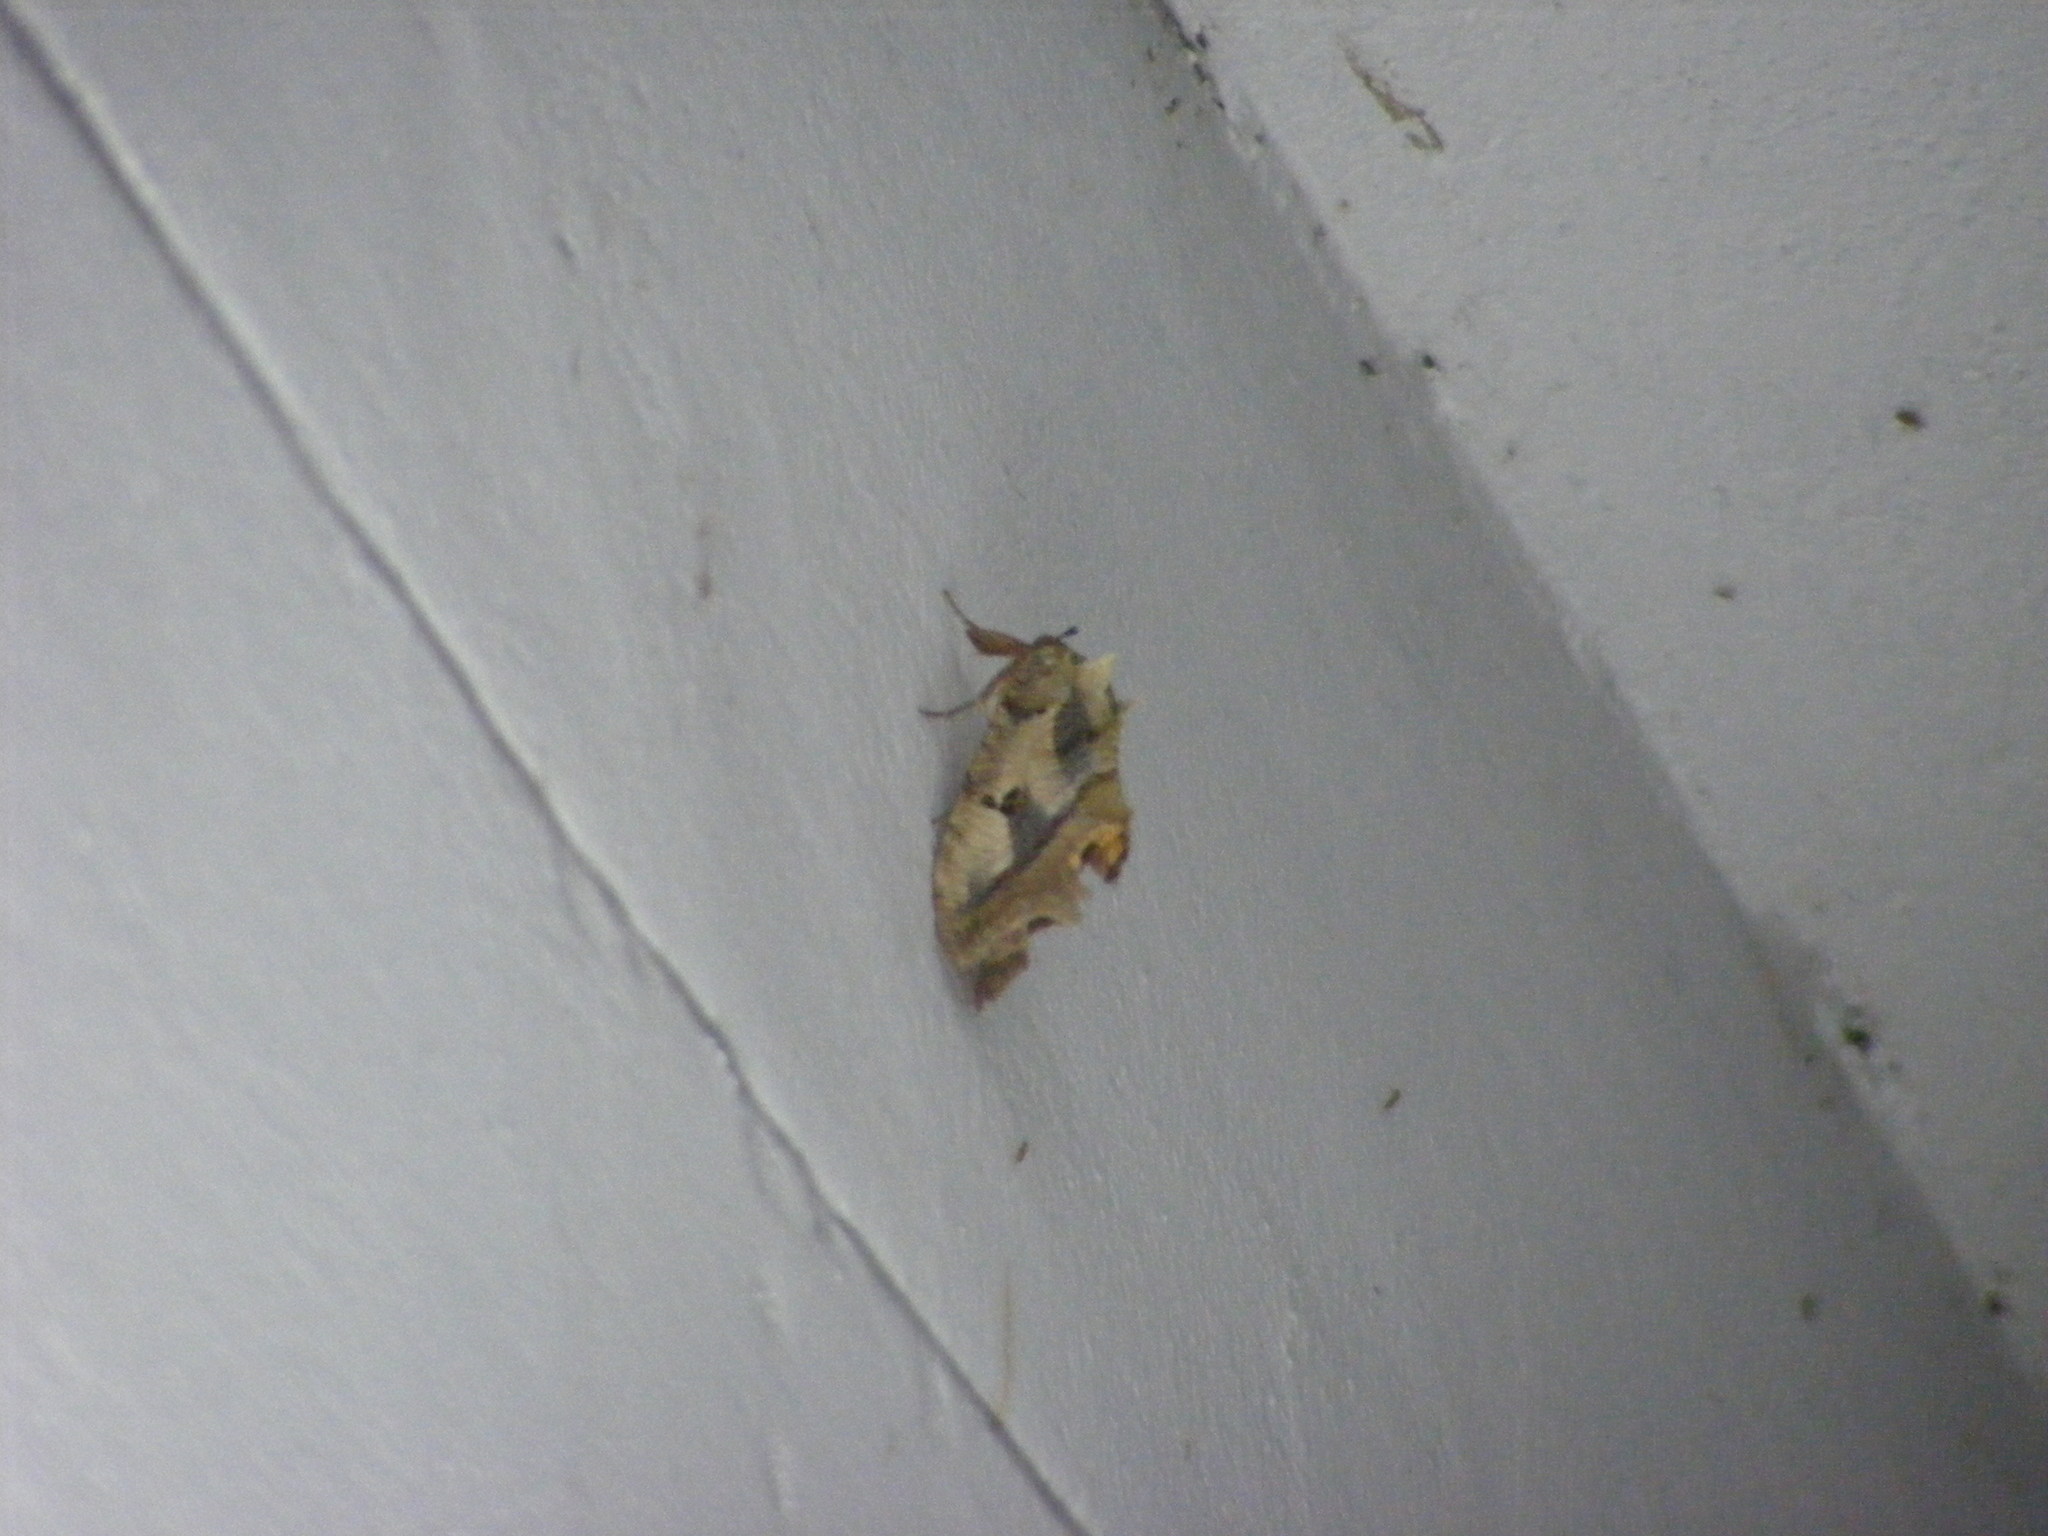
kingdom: Animalia
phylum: Arthropoda
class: Insecta
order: Lepidoptera
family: Erebidae
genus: Eudocima
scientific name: Eudocima materna
